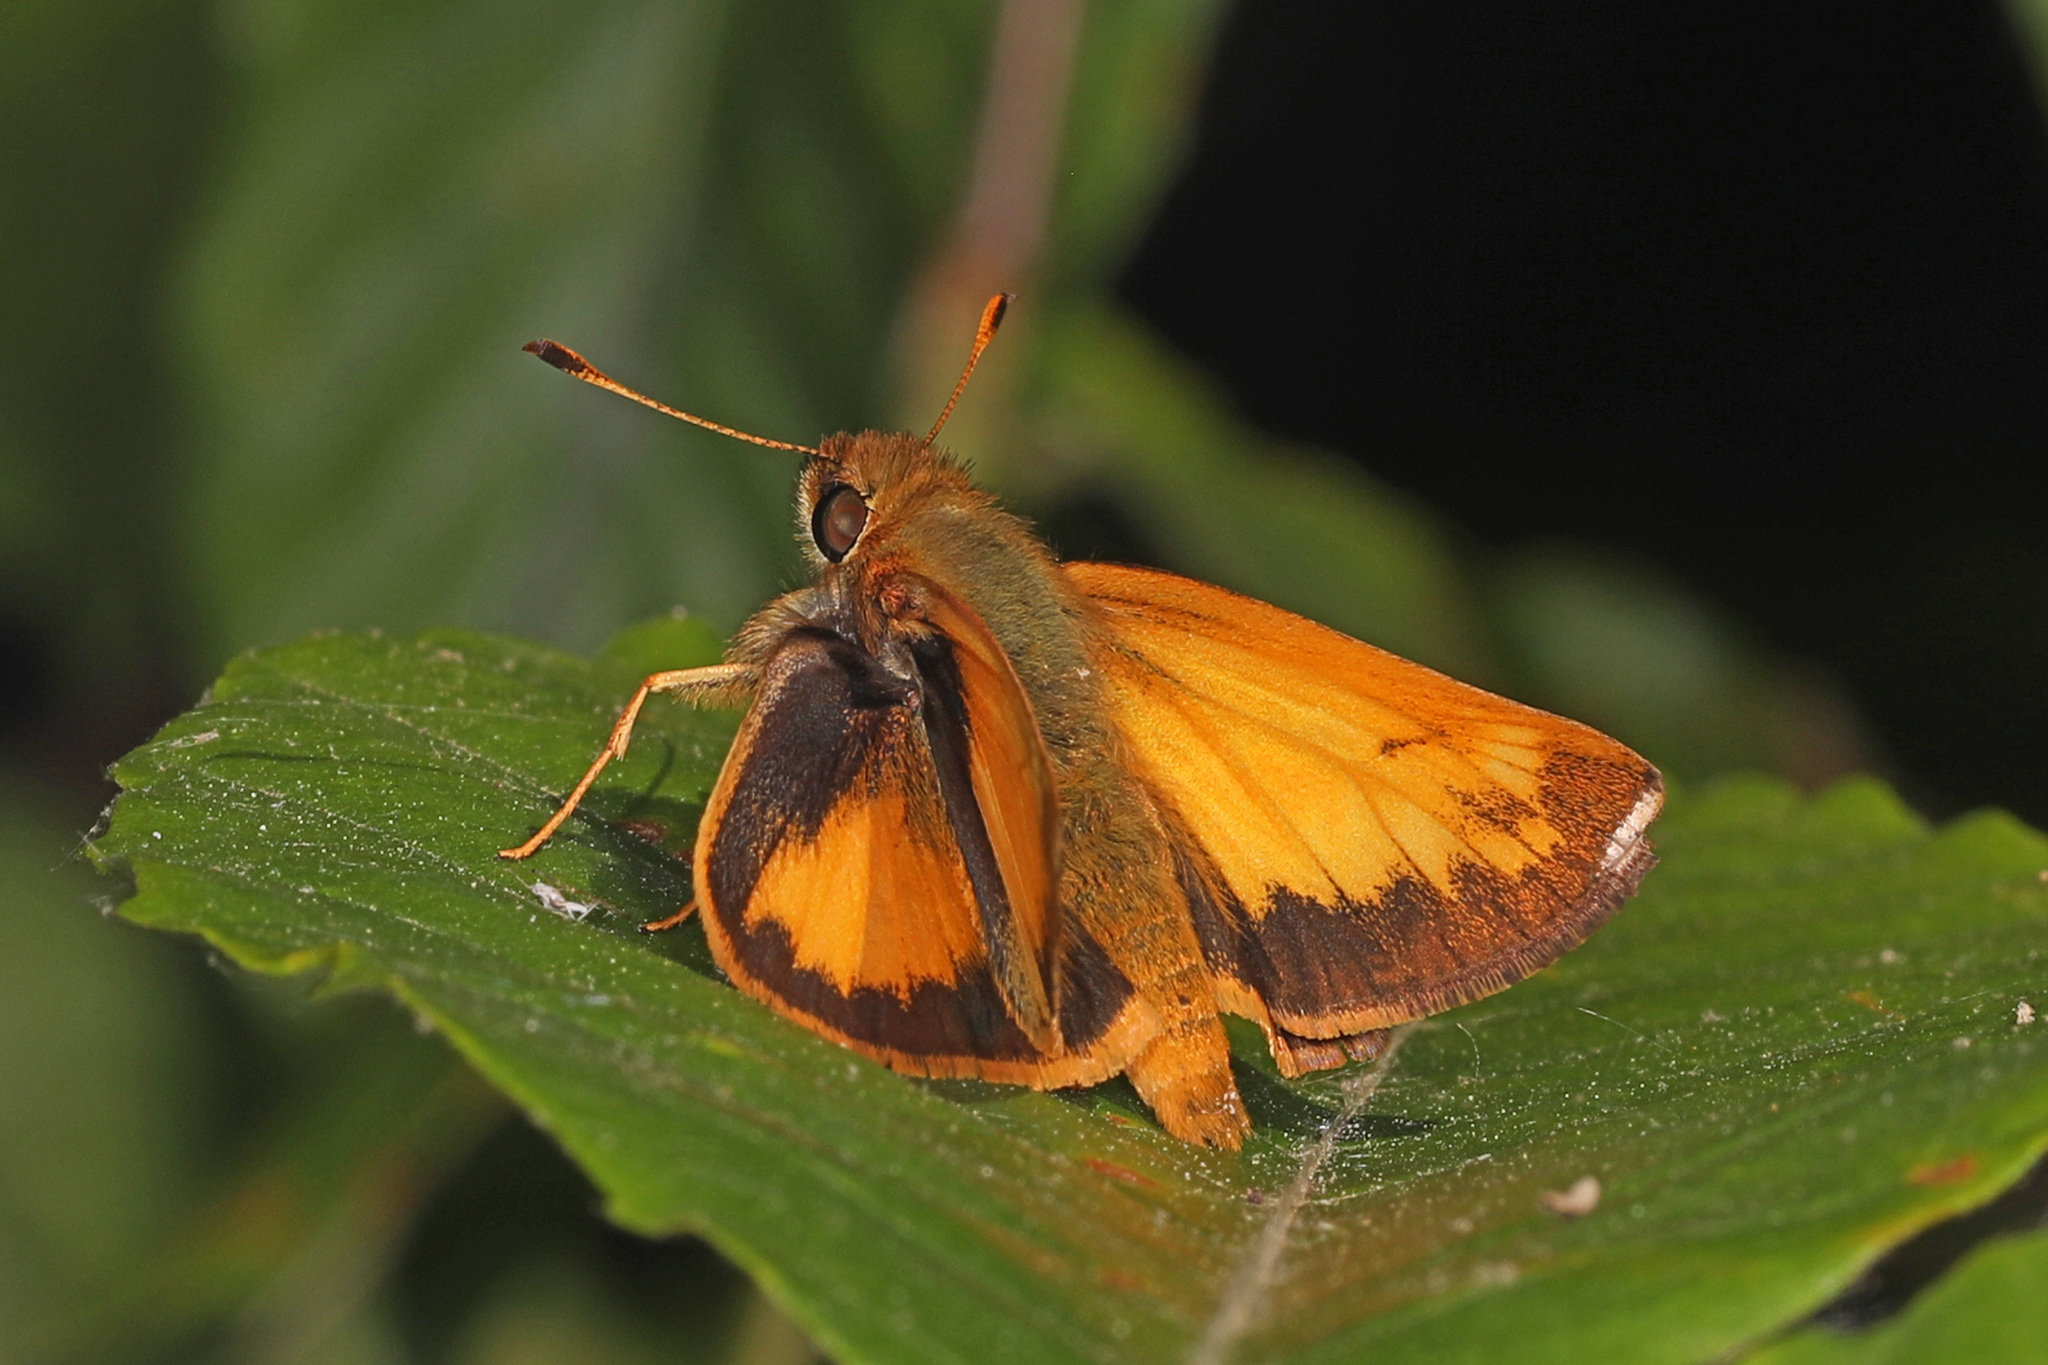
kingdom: Animalia
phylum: Arthropoda
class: Insecta
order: Lepidoptera
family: Hesperiidae
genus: Lon
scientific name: Lon zabulon
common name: Zabulon skipper
